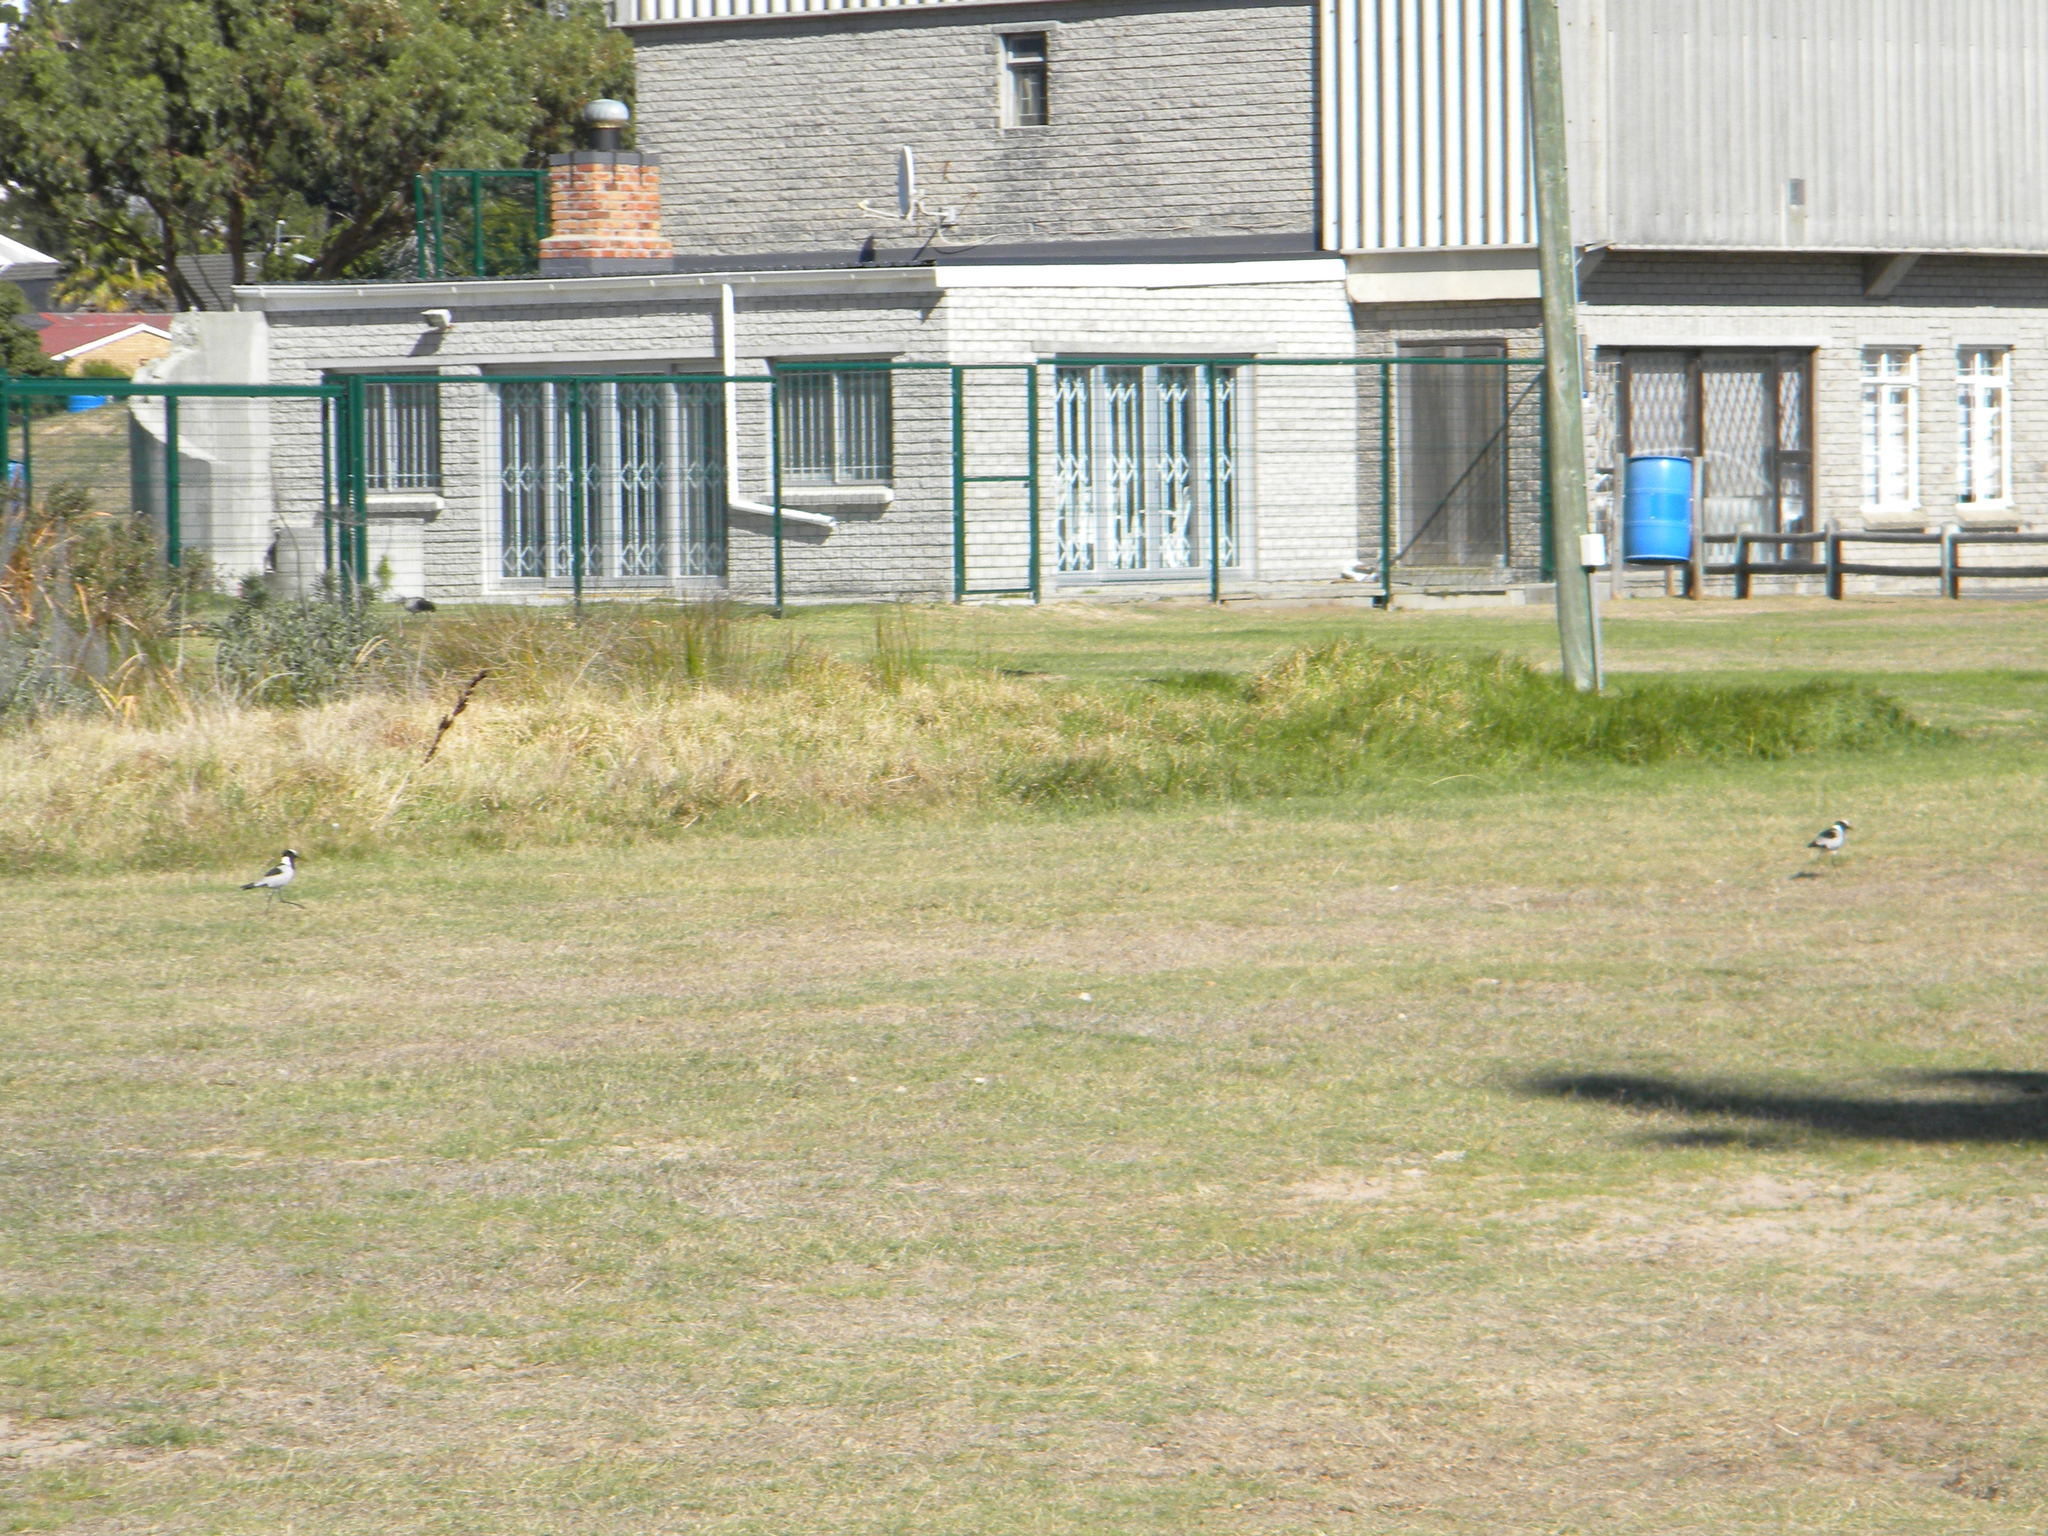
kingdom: Animalia
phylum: Chordata
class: Aves
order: Charadriiformes
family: Charadriidae
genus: Vanellus
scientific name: Vanellus armatus
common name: Blacksmith lapwing
